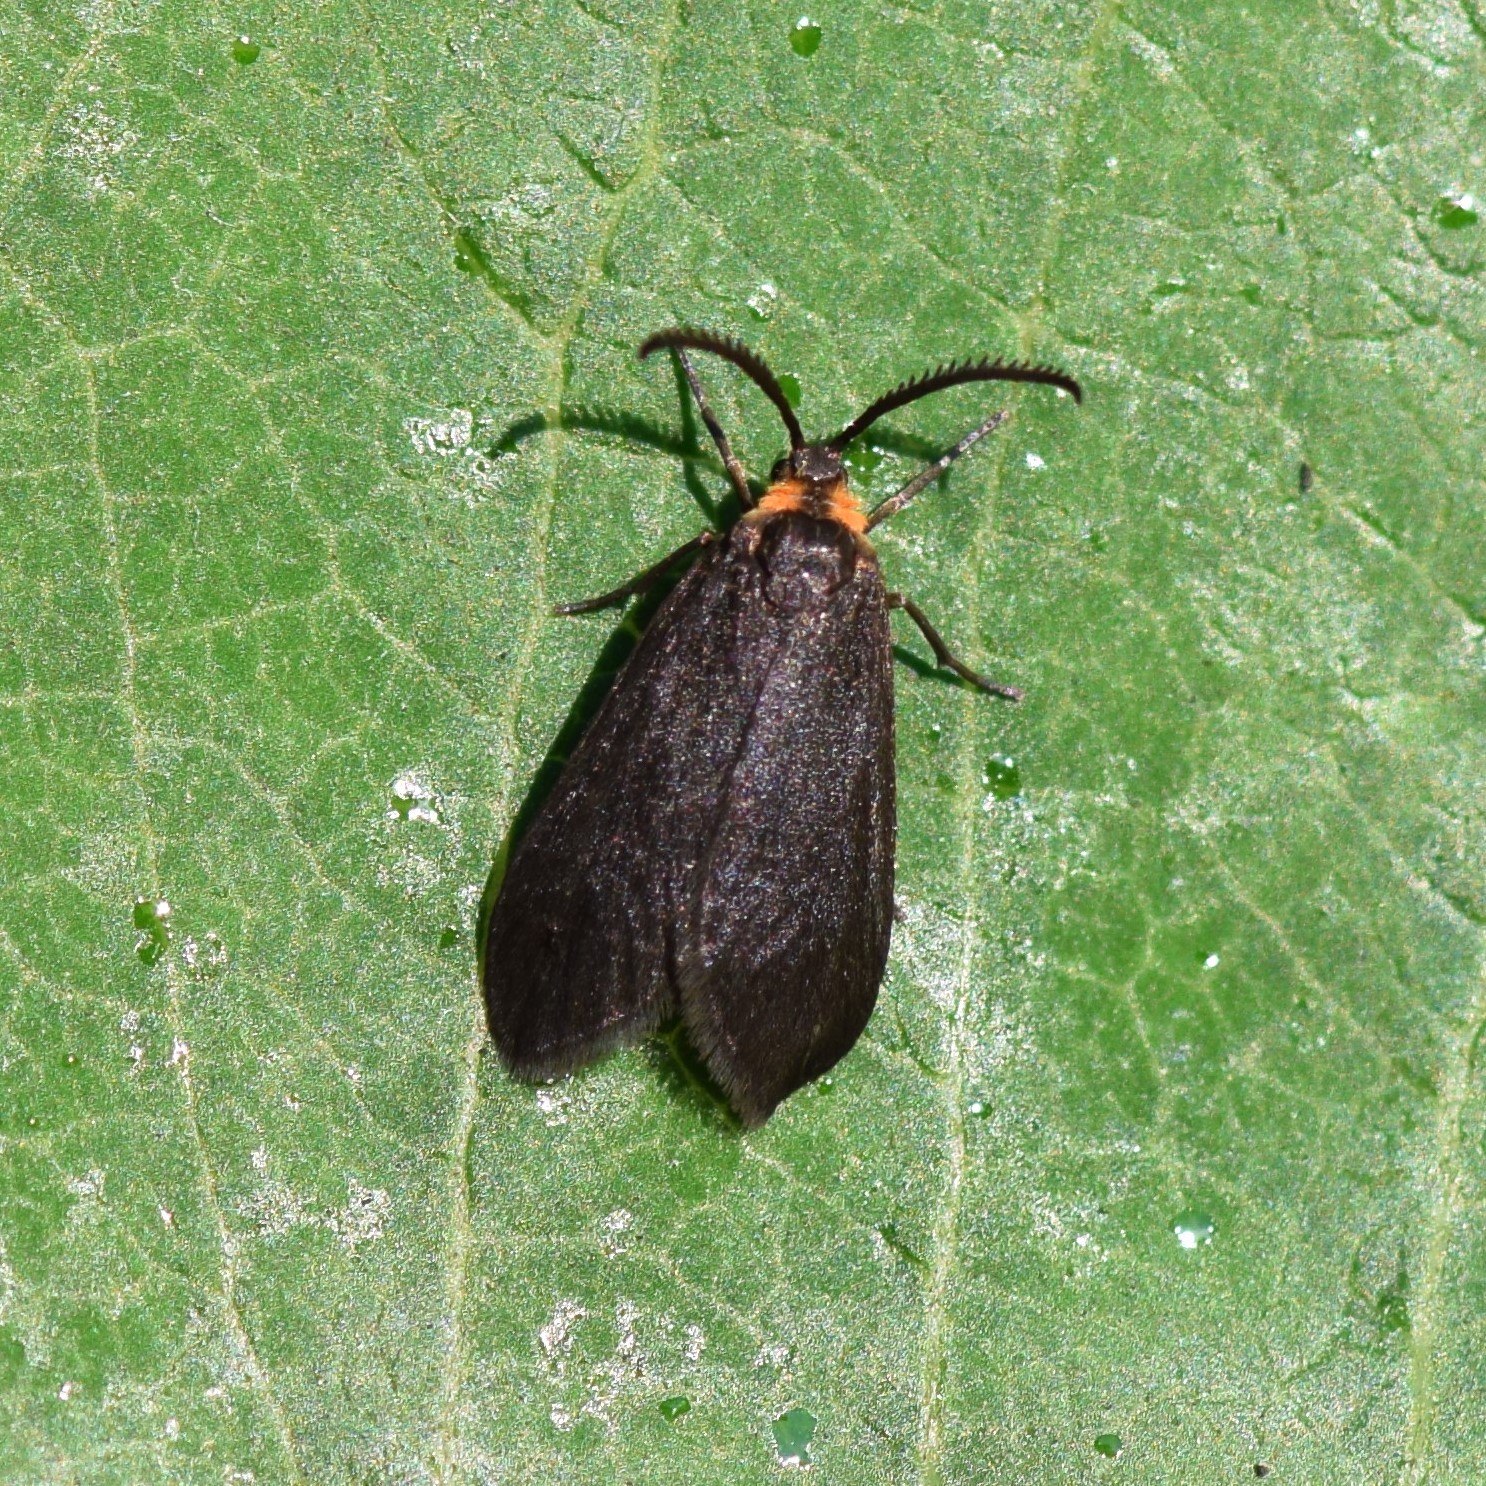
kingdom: Animalia
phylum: Arthropoda
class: Insecta
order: Lepidoptera
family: Zygaenidae
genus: Acoloithus
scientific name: Acoloithus falsarius
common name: Clemens' false skeletonizer
